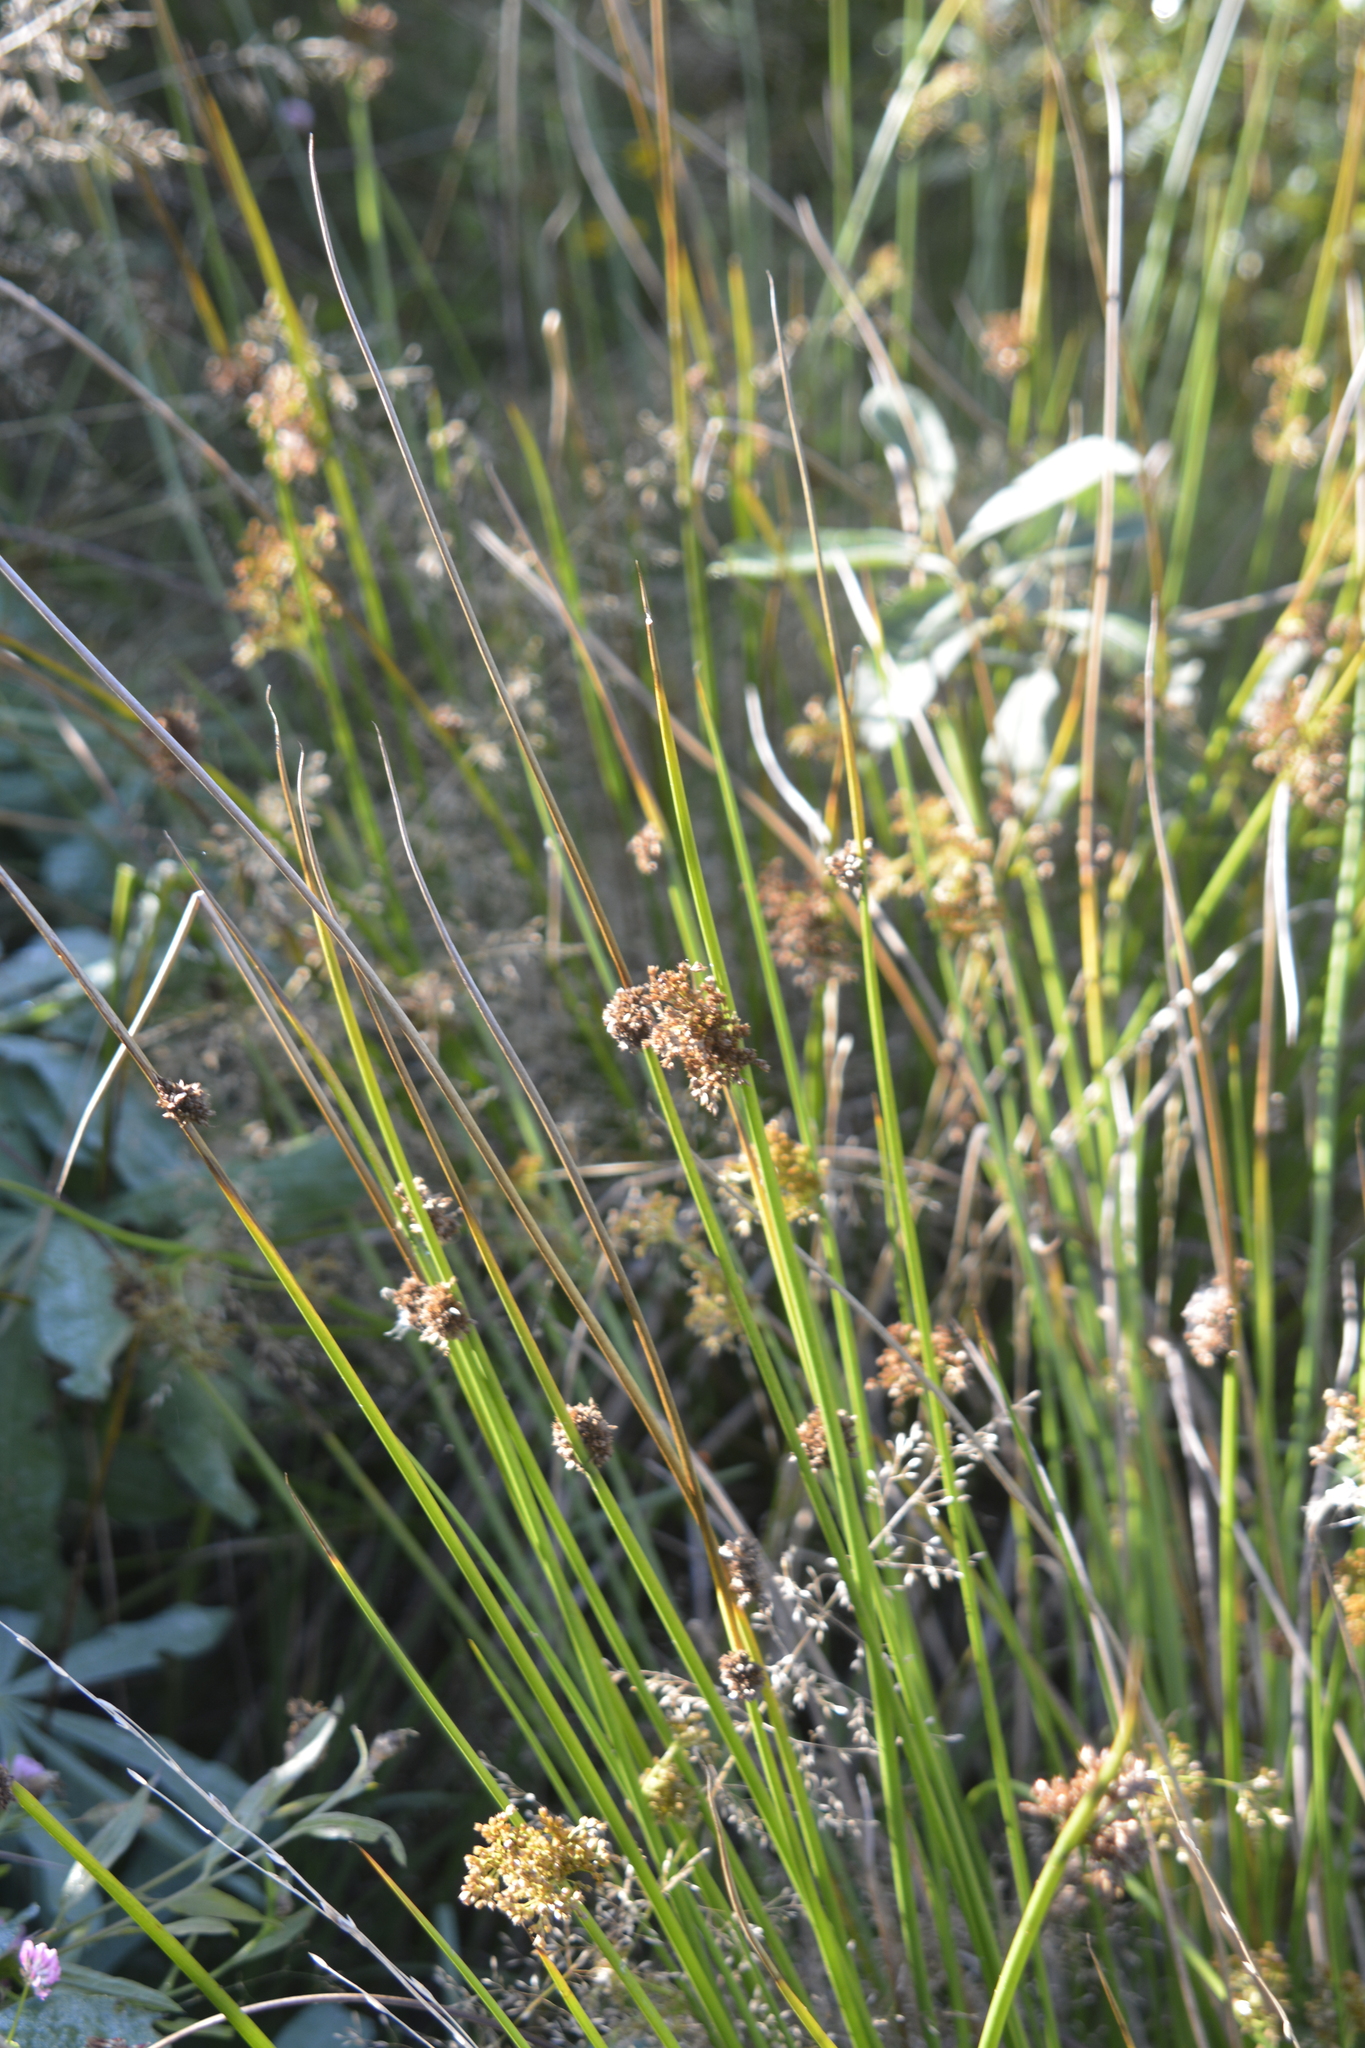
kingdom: Plantae
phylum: Tracheophyta
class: Liliopsida
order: Poales
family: Juncaceae
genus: Juncus
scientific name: Juncus effusus
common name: Soft rush
